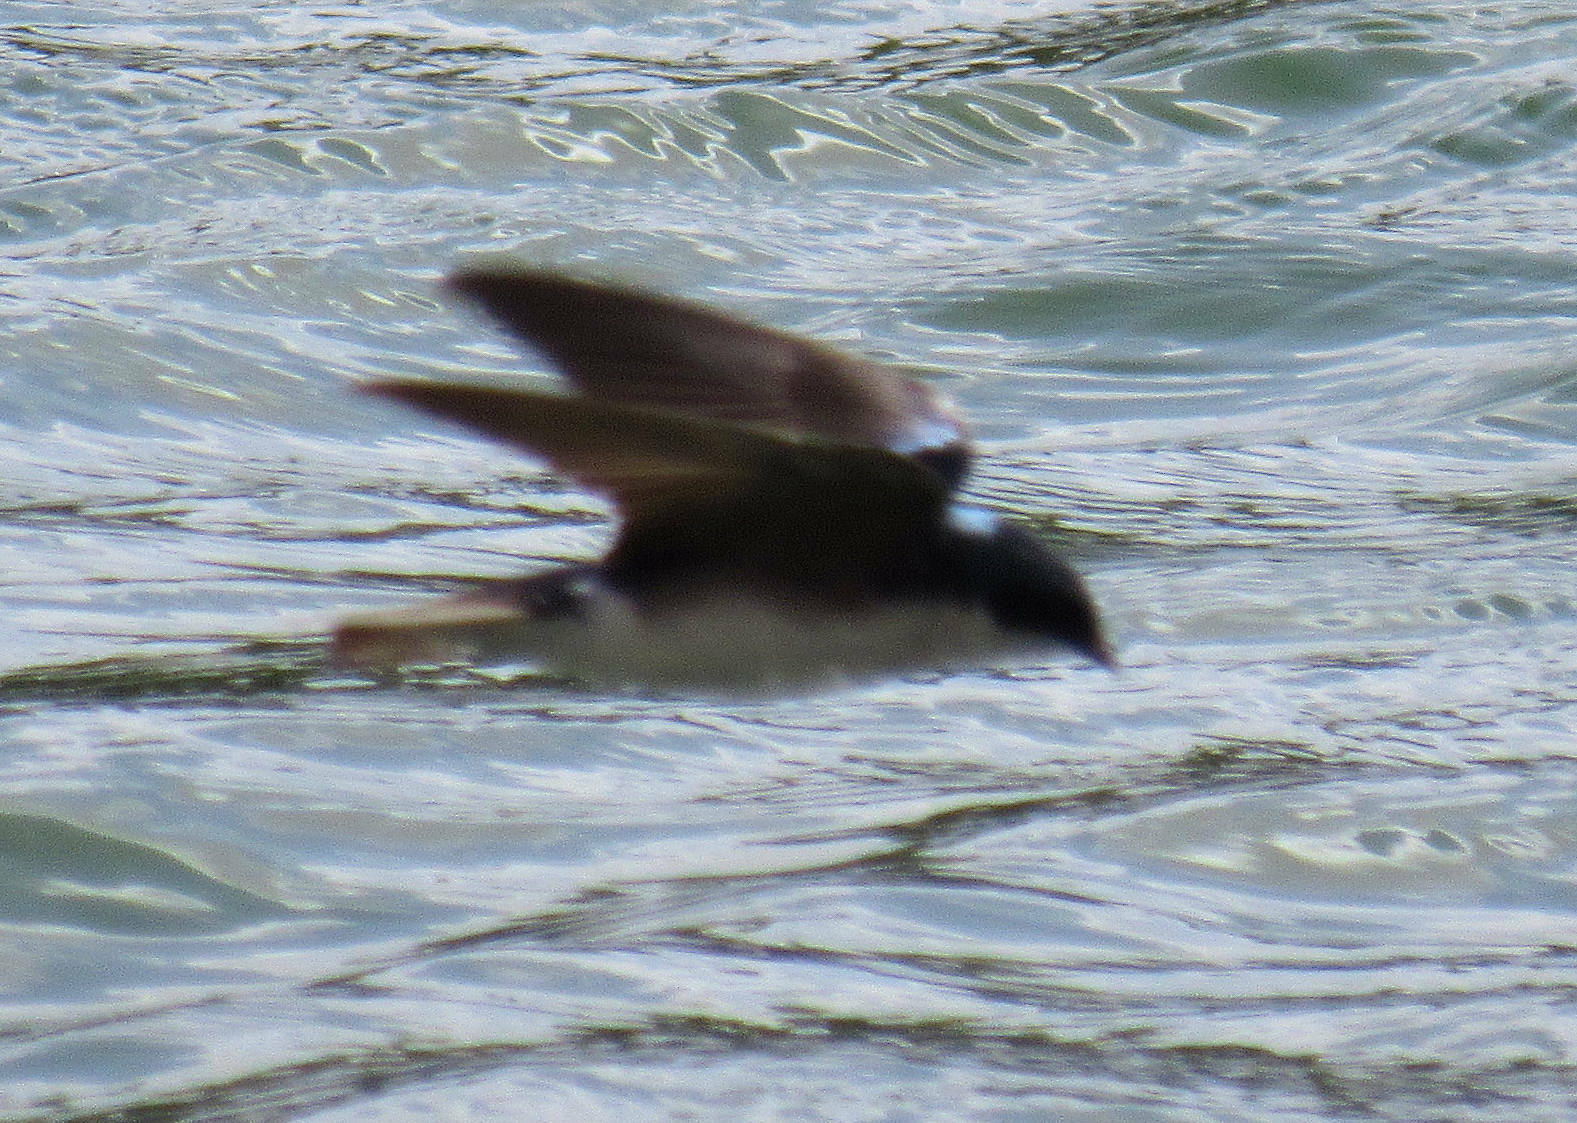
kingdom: Animalia
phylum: Chordata
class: Aves
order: Passeriformes
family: Hirundinidae
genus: Tachycineta
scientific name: Tachycineta bicolor
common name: Tree swallow
